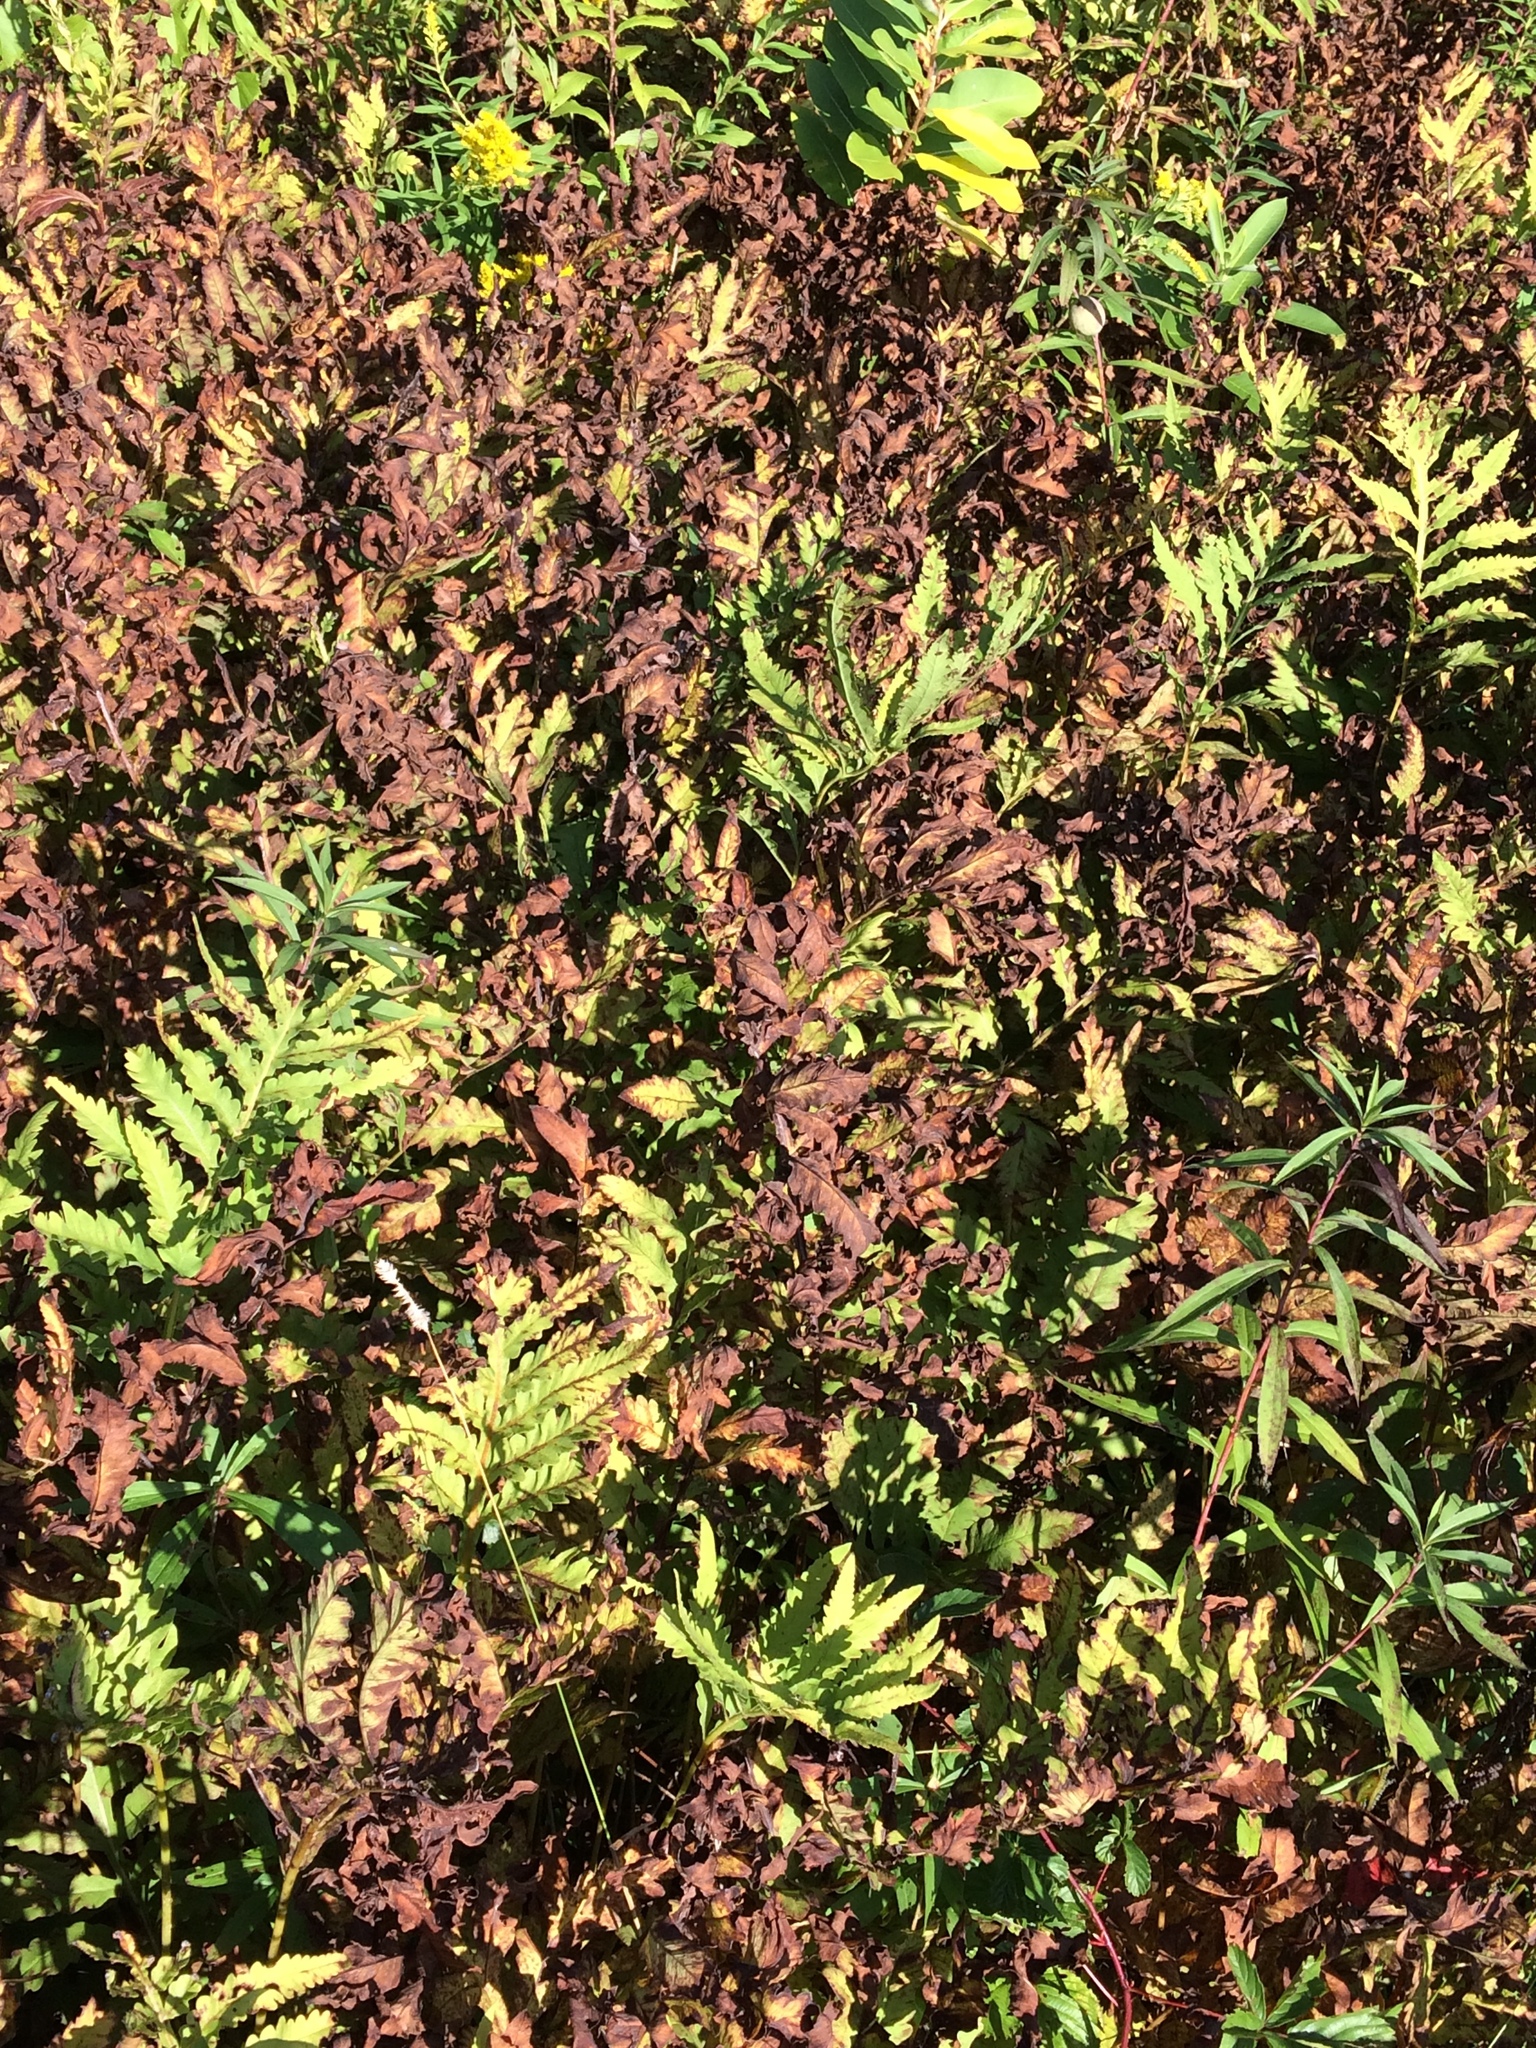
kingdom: Plantae
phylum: Tracheophyta
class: Polypodiopsida
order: Polypodiales
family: Onocleaceae
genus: Onoclea
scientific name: Onoclea sensibilis
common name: Sensitive fern
